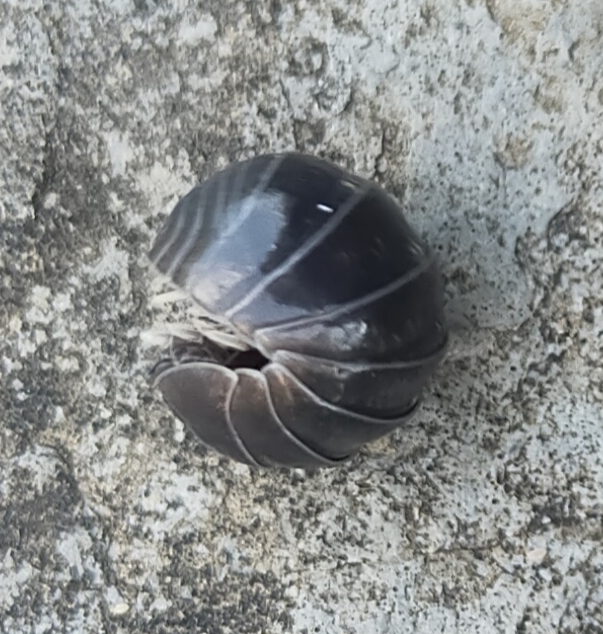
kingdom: Animalia
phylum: Arthropoda
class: Malacostraca
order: Isopoda
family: Armadillidiidae
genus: Armadillidium
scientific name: Armadillidium vulgare
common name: Common pill woodlouse
